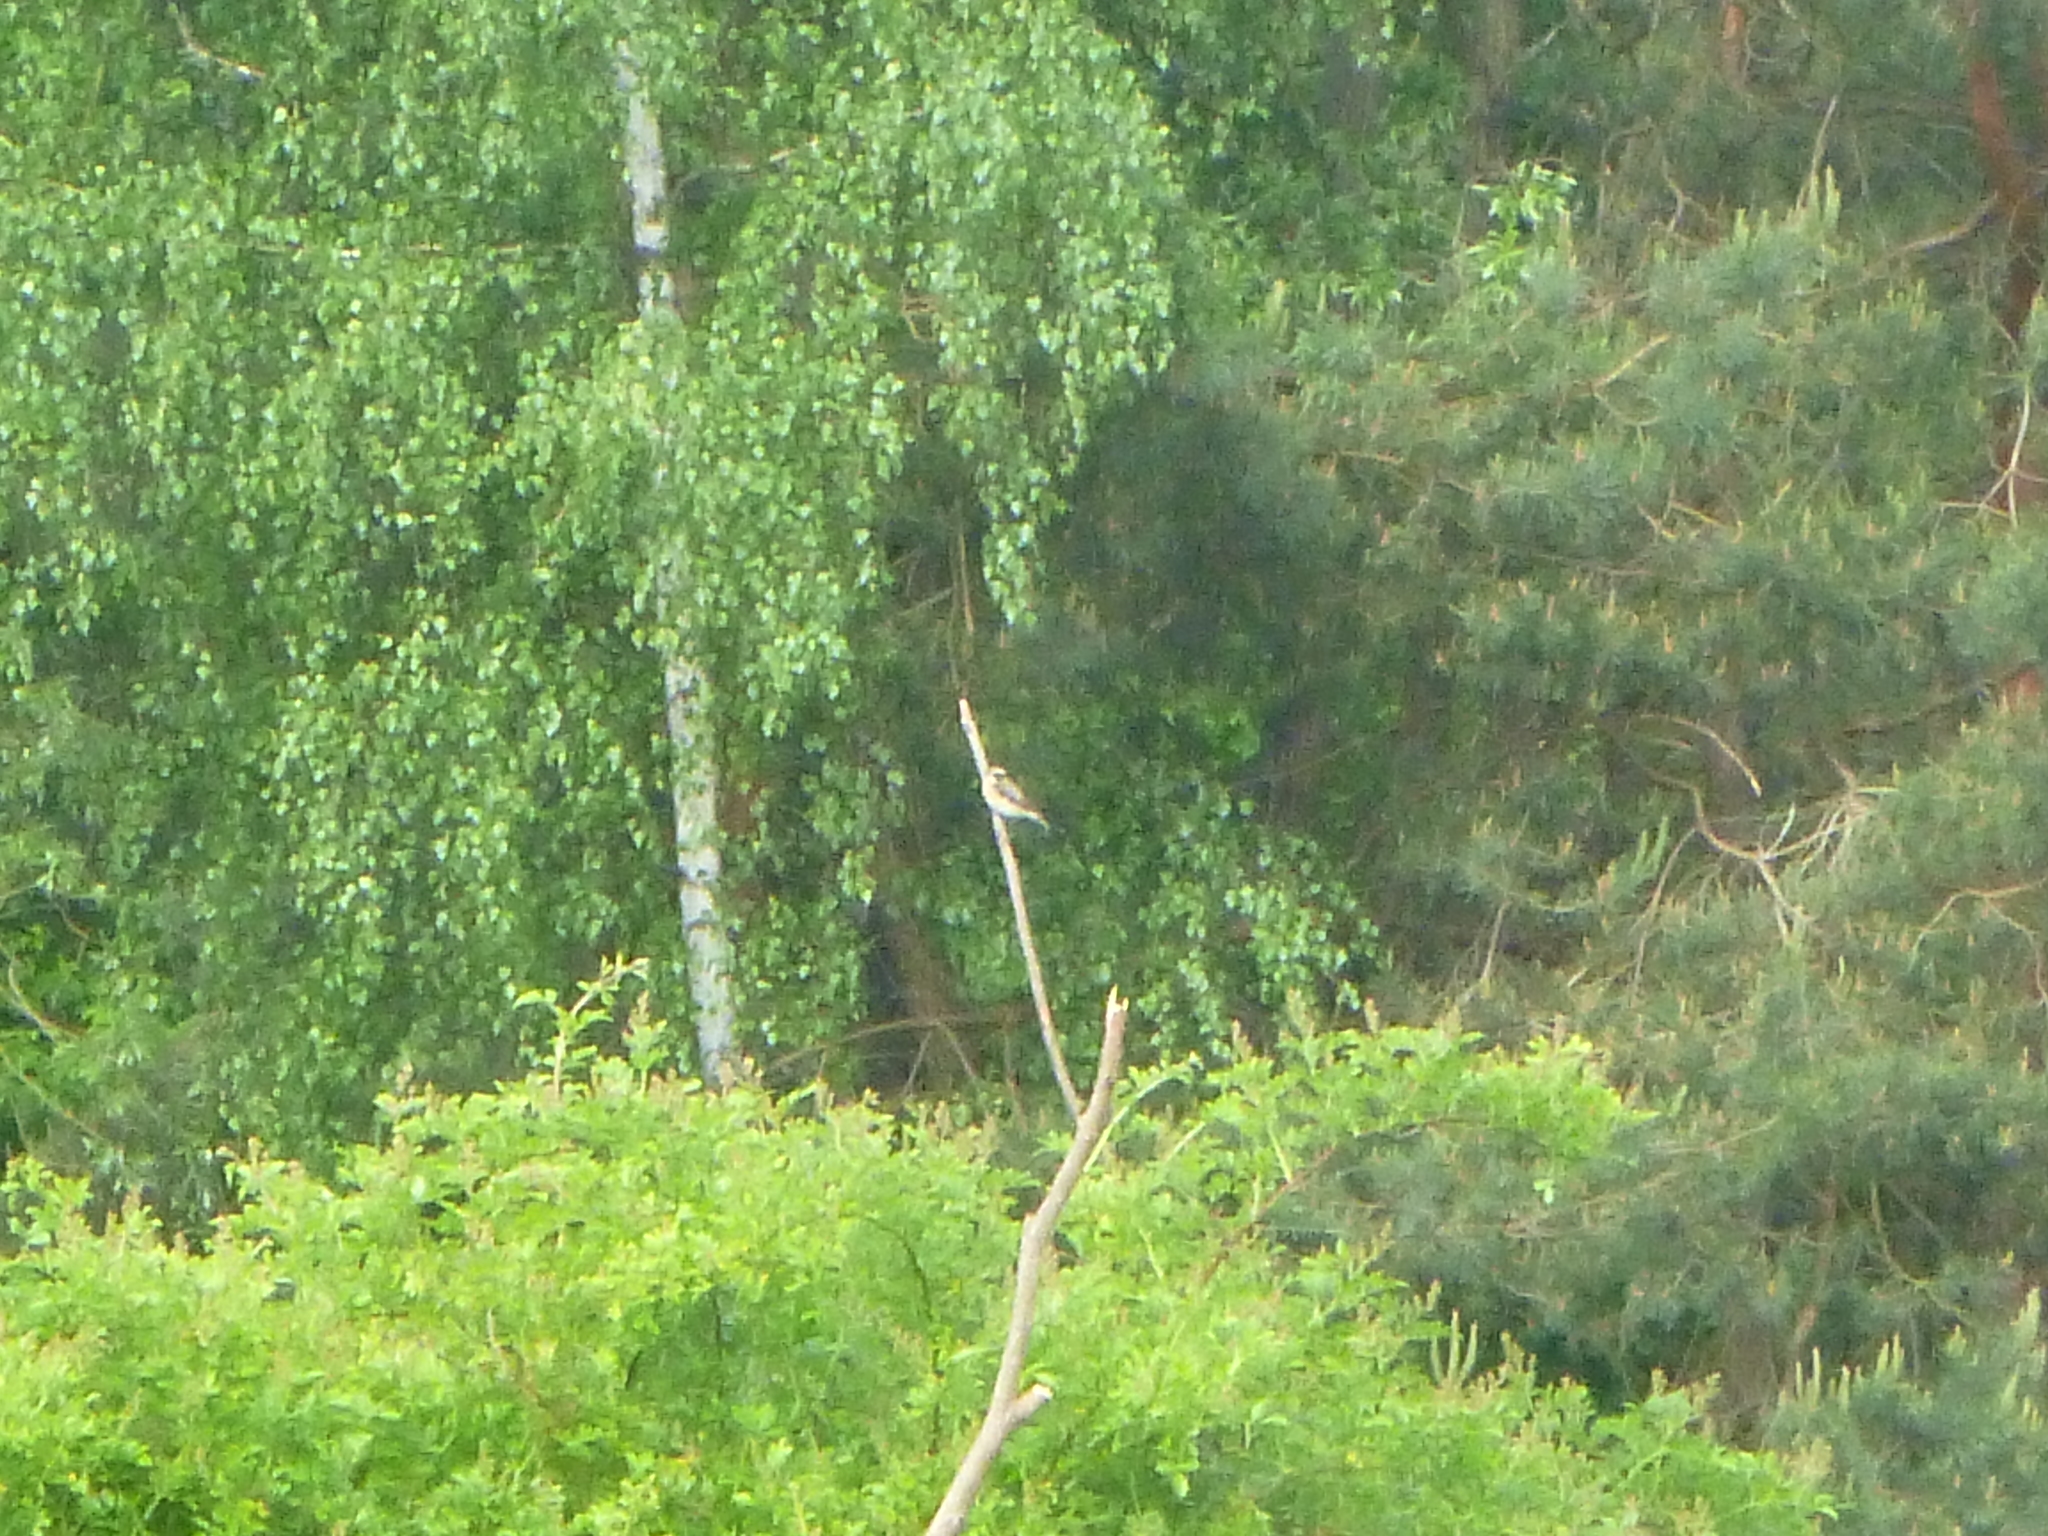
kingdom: Animalia
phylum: Chordata
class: Aves
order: Passeriformes
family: Muscicapidae
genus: Saxicola
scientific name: Saxicola rubetra
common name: Whinchat
